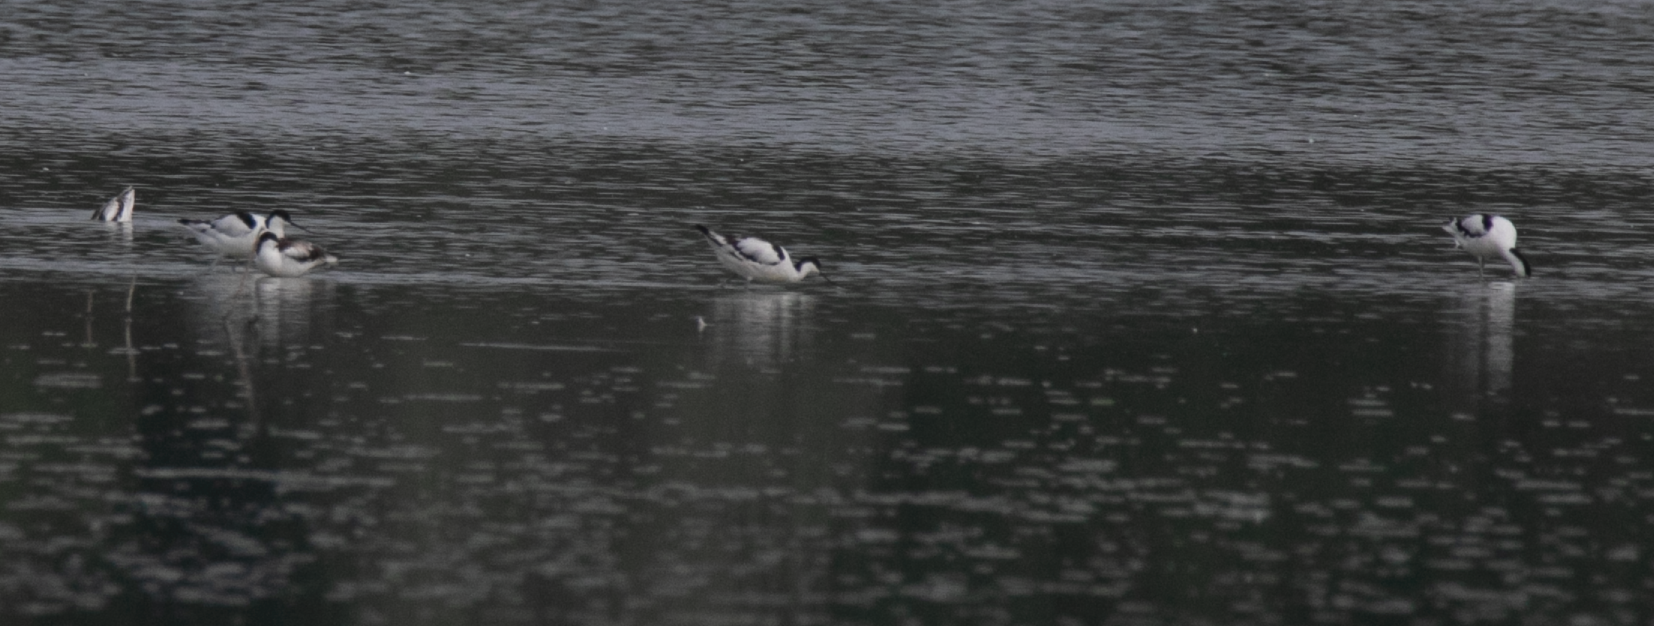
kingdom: Animalia
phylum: Chordata
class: Aves
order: Charadriiformes
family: Recurvirostridae
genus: Recurvirostra
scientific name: Recurvirostra avosetta
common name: Pied avocet
